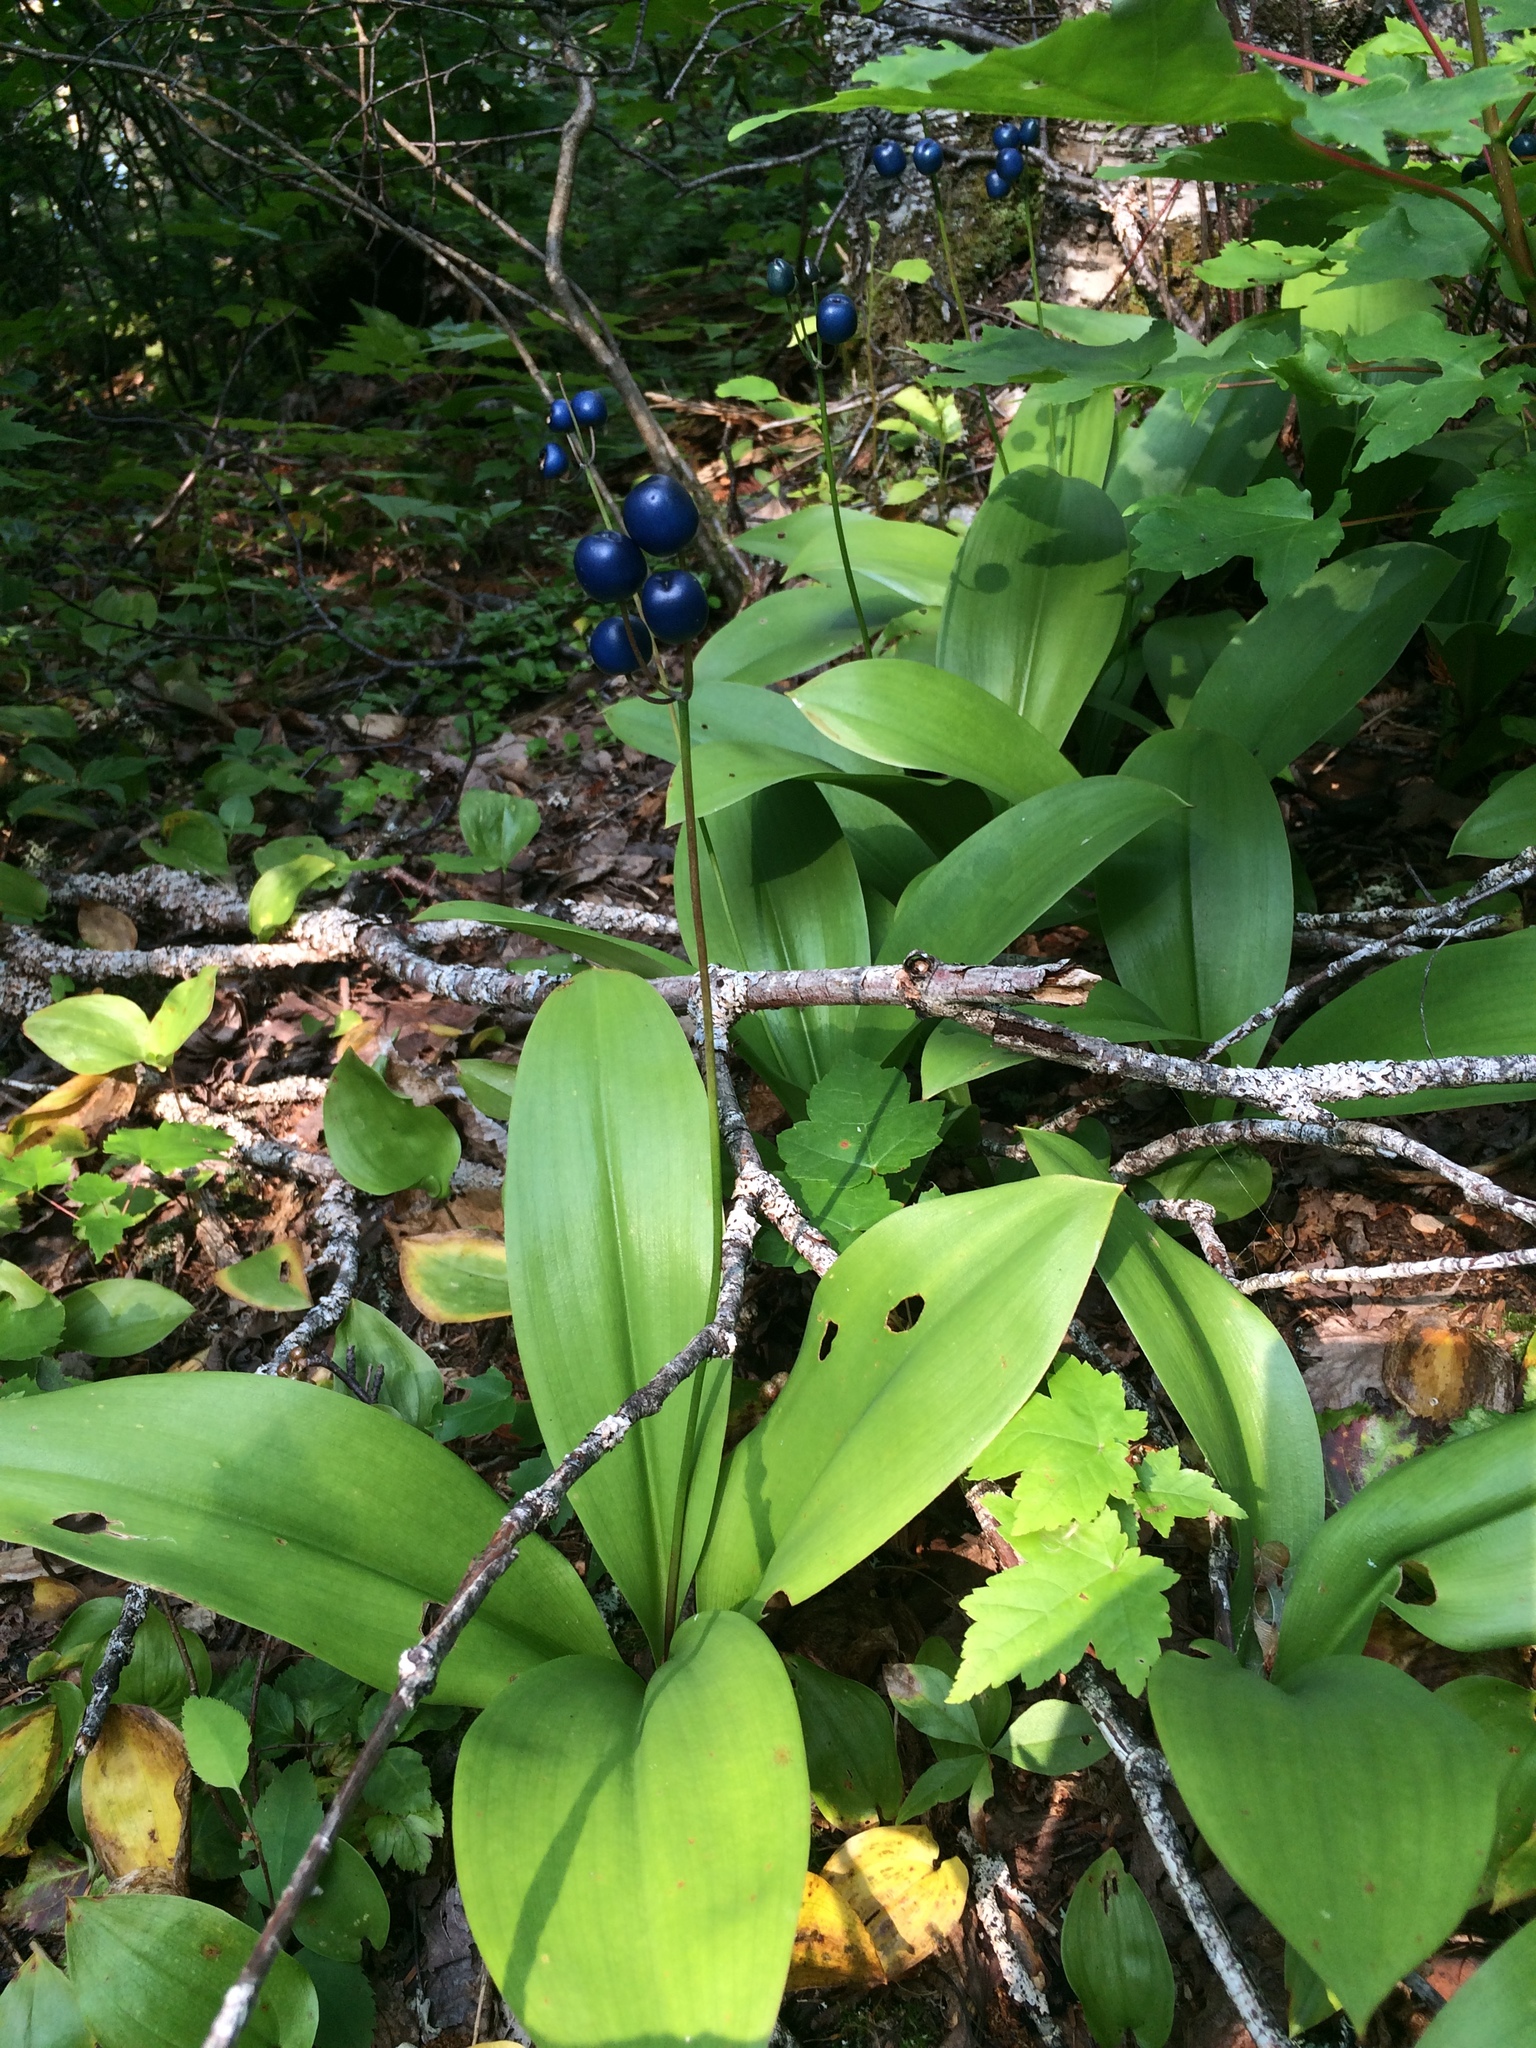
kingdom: Plantae
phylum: Tracheophyta
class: Liliopsida
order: Liliales
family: Liliaceae
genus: Clintonia
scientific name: Clintonia borealis
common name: Yellow clintonia
